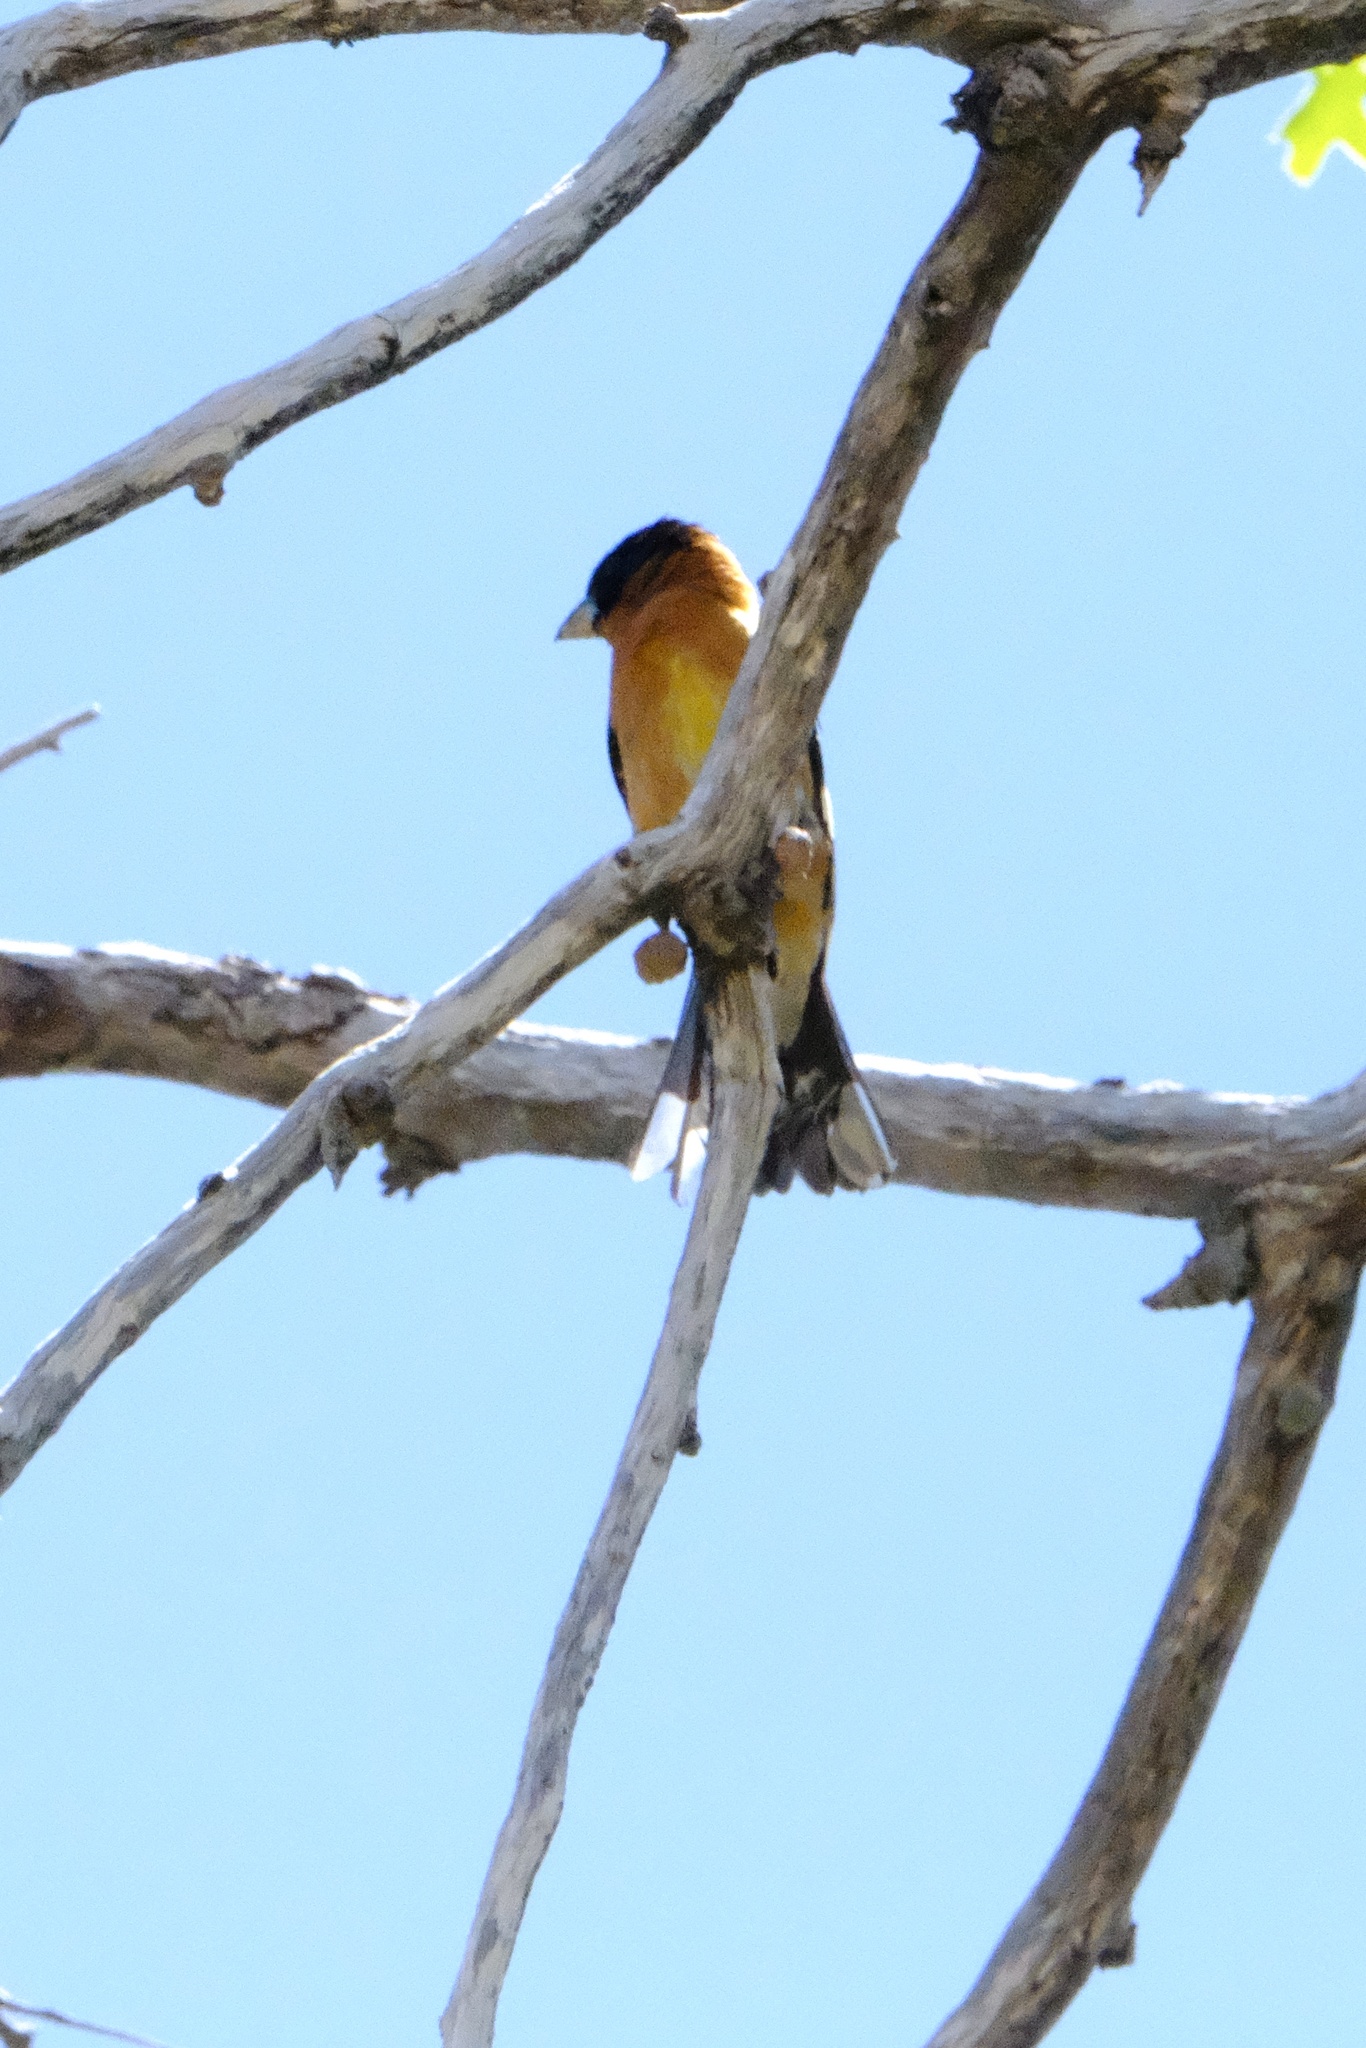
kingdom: Animalia
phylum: Chordata
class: Aves
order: Passeriformes
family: Cardinalidae
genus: Pheucticus
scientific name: Pheucticus melanocephalus
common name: Black-headed grosbeak
